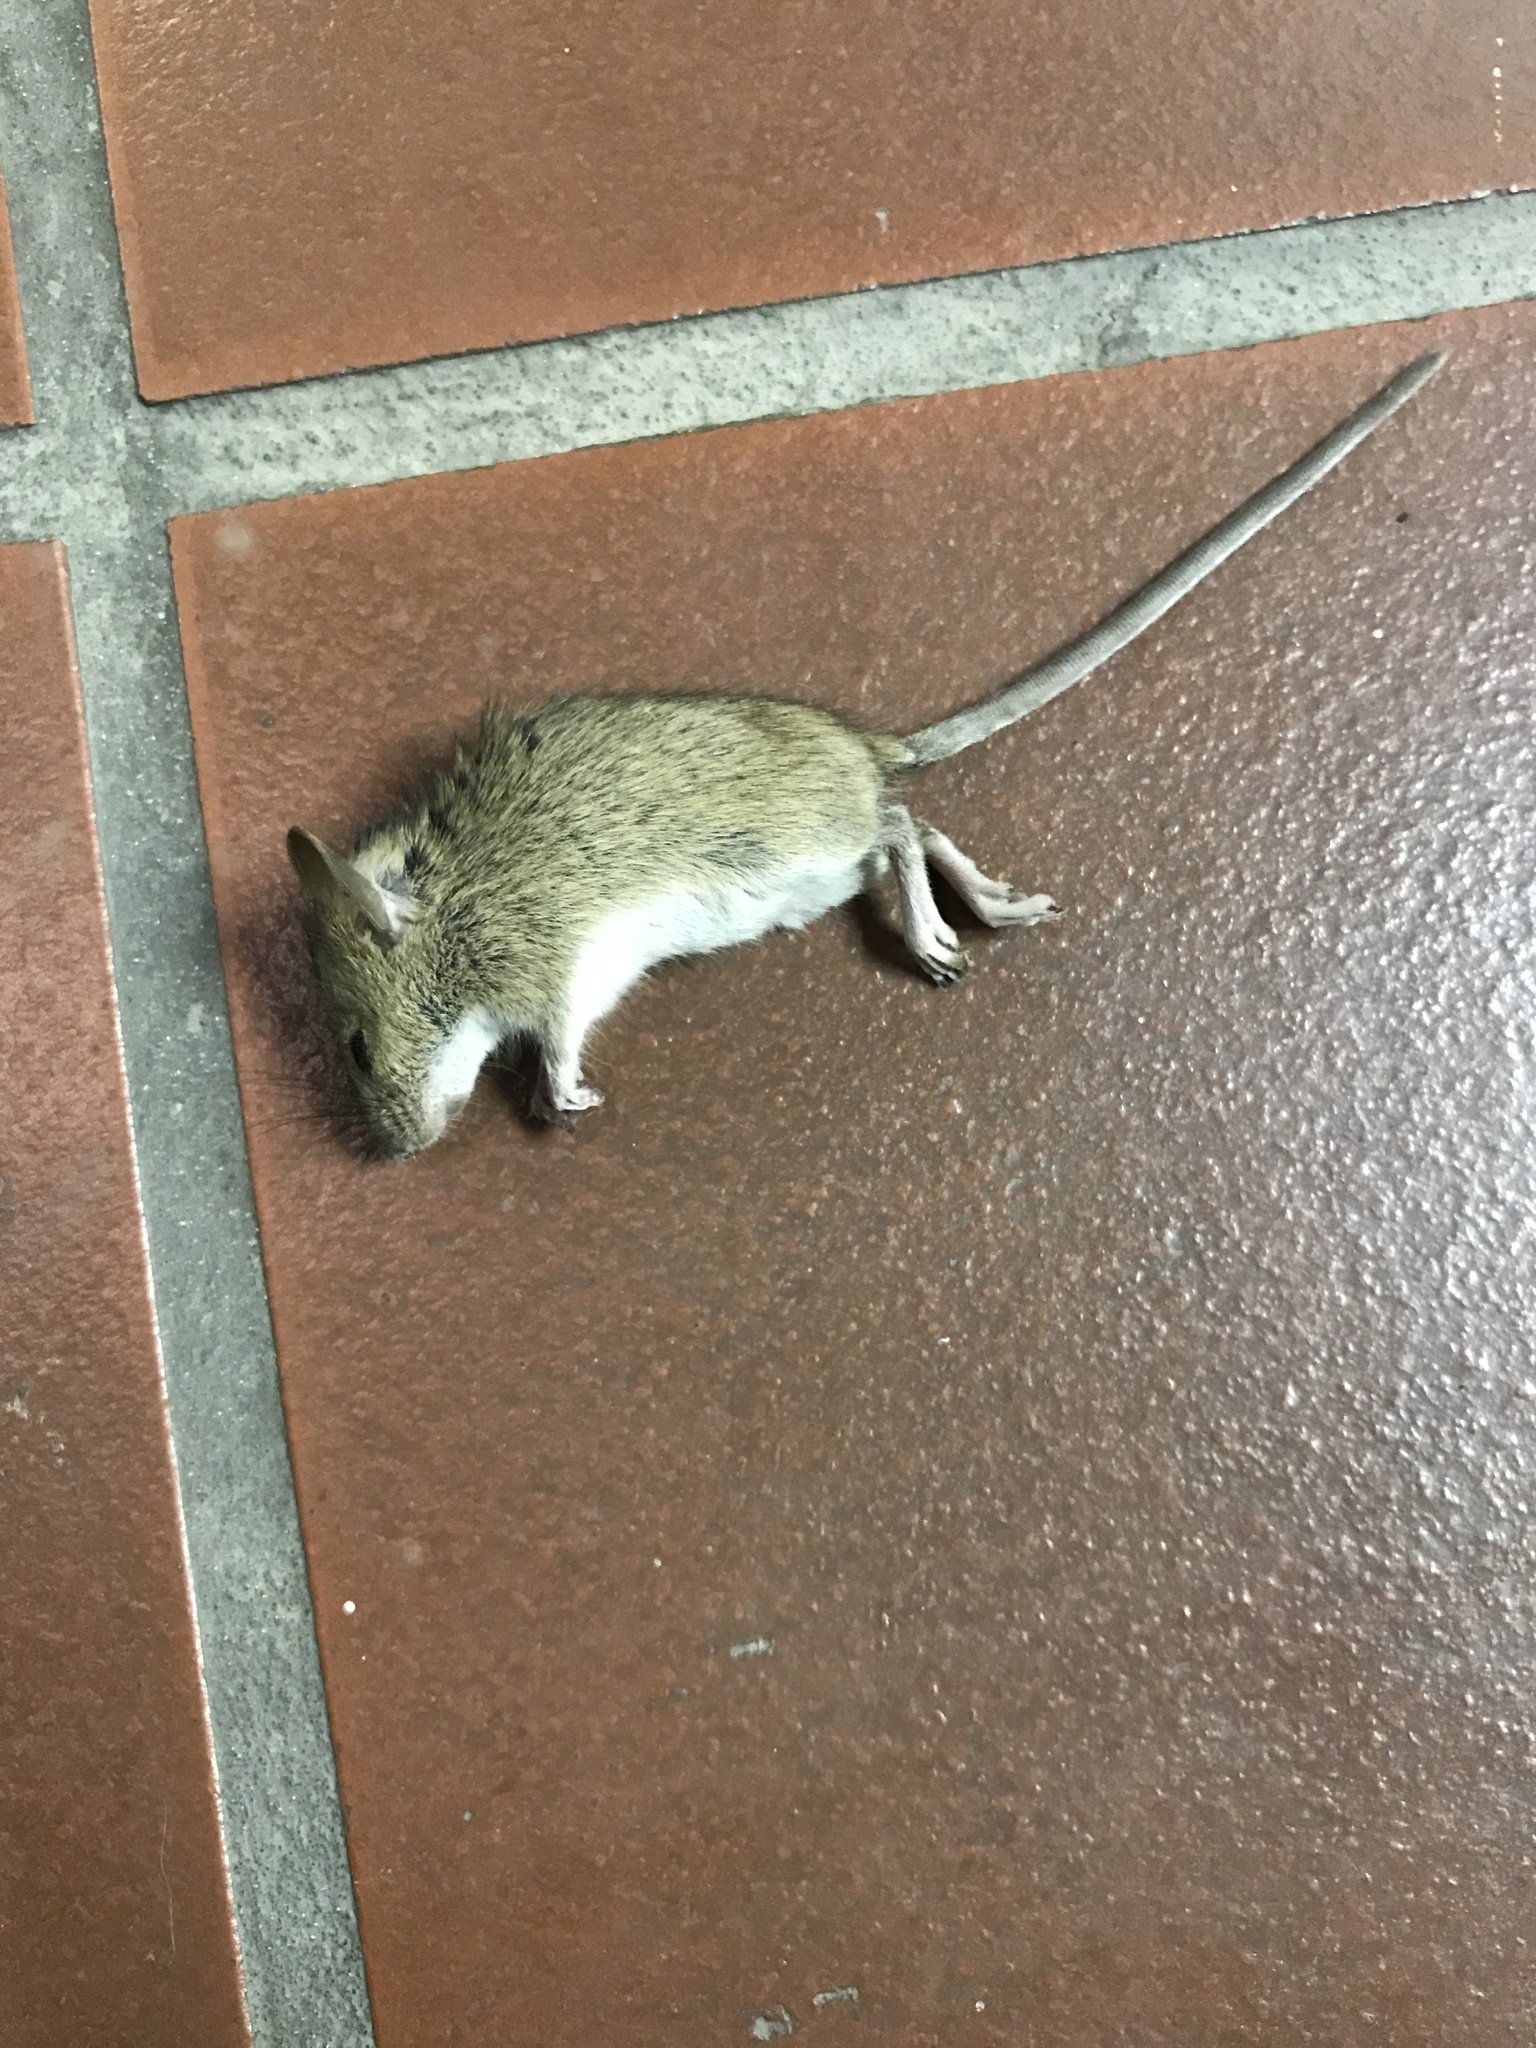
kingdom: Animalia
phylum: Chordata
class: Mammalia
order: Rodentia
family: Cricetidae
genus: Peromyscus
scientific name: Peromyscus maniculatus
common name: Deer mouse
